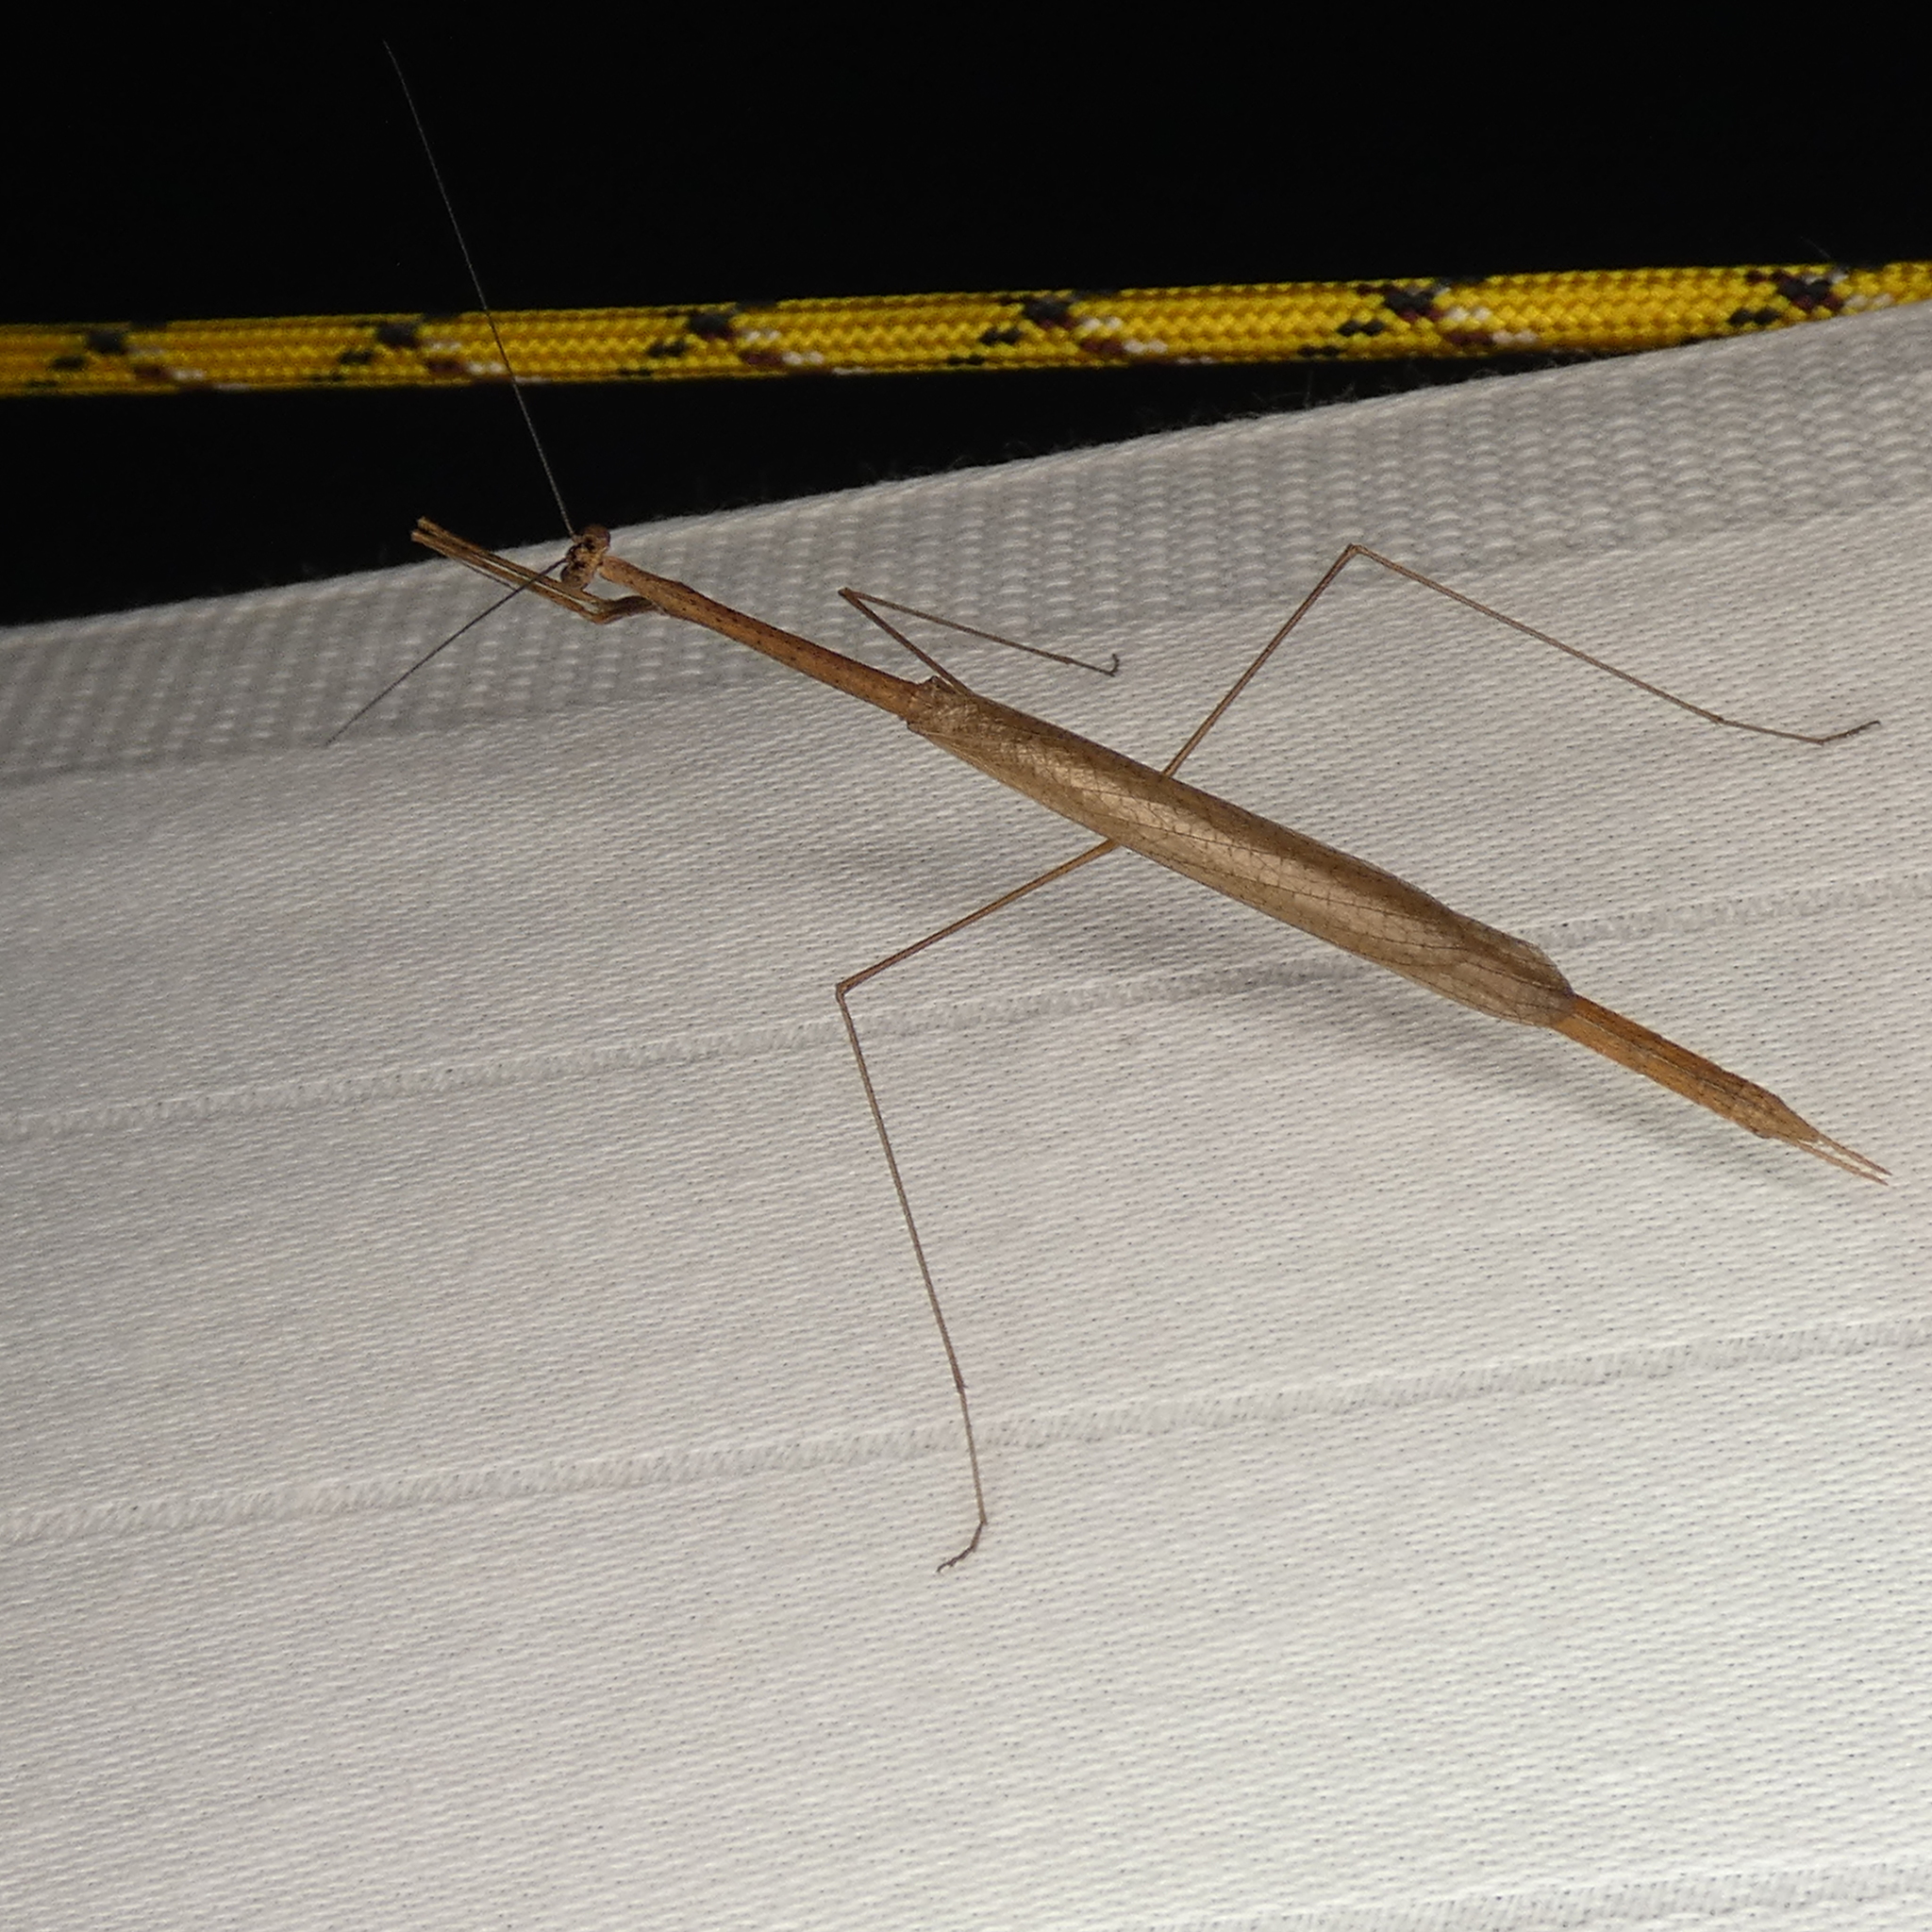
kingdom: Animalia
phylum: Arthropoda
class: Insecta
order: Mantodea
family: Thespidae
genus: Thesprotia
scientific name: Thesprotia graminis
